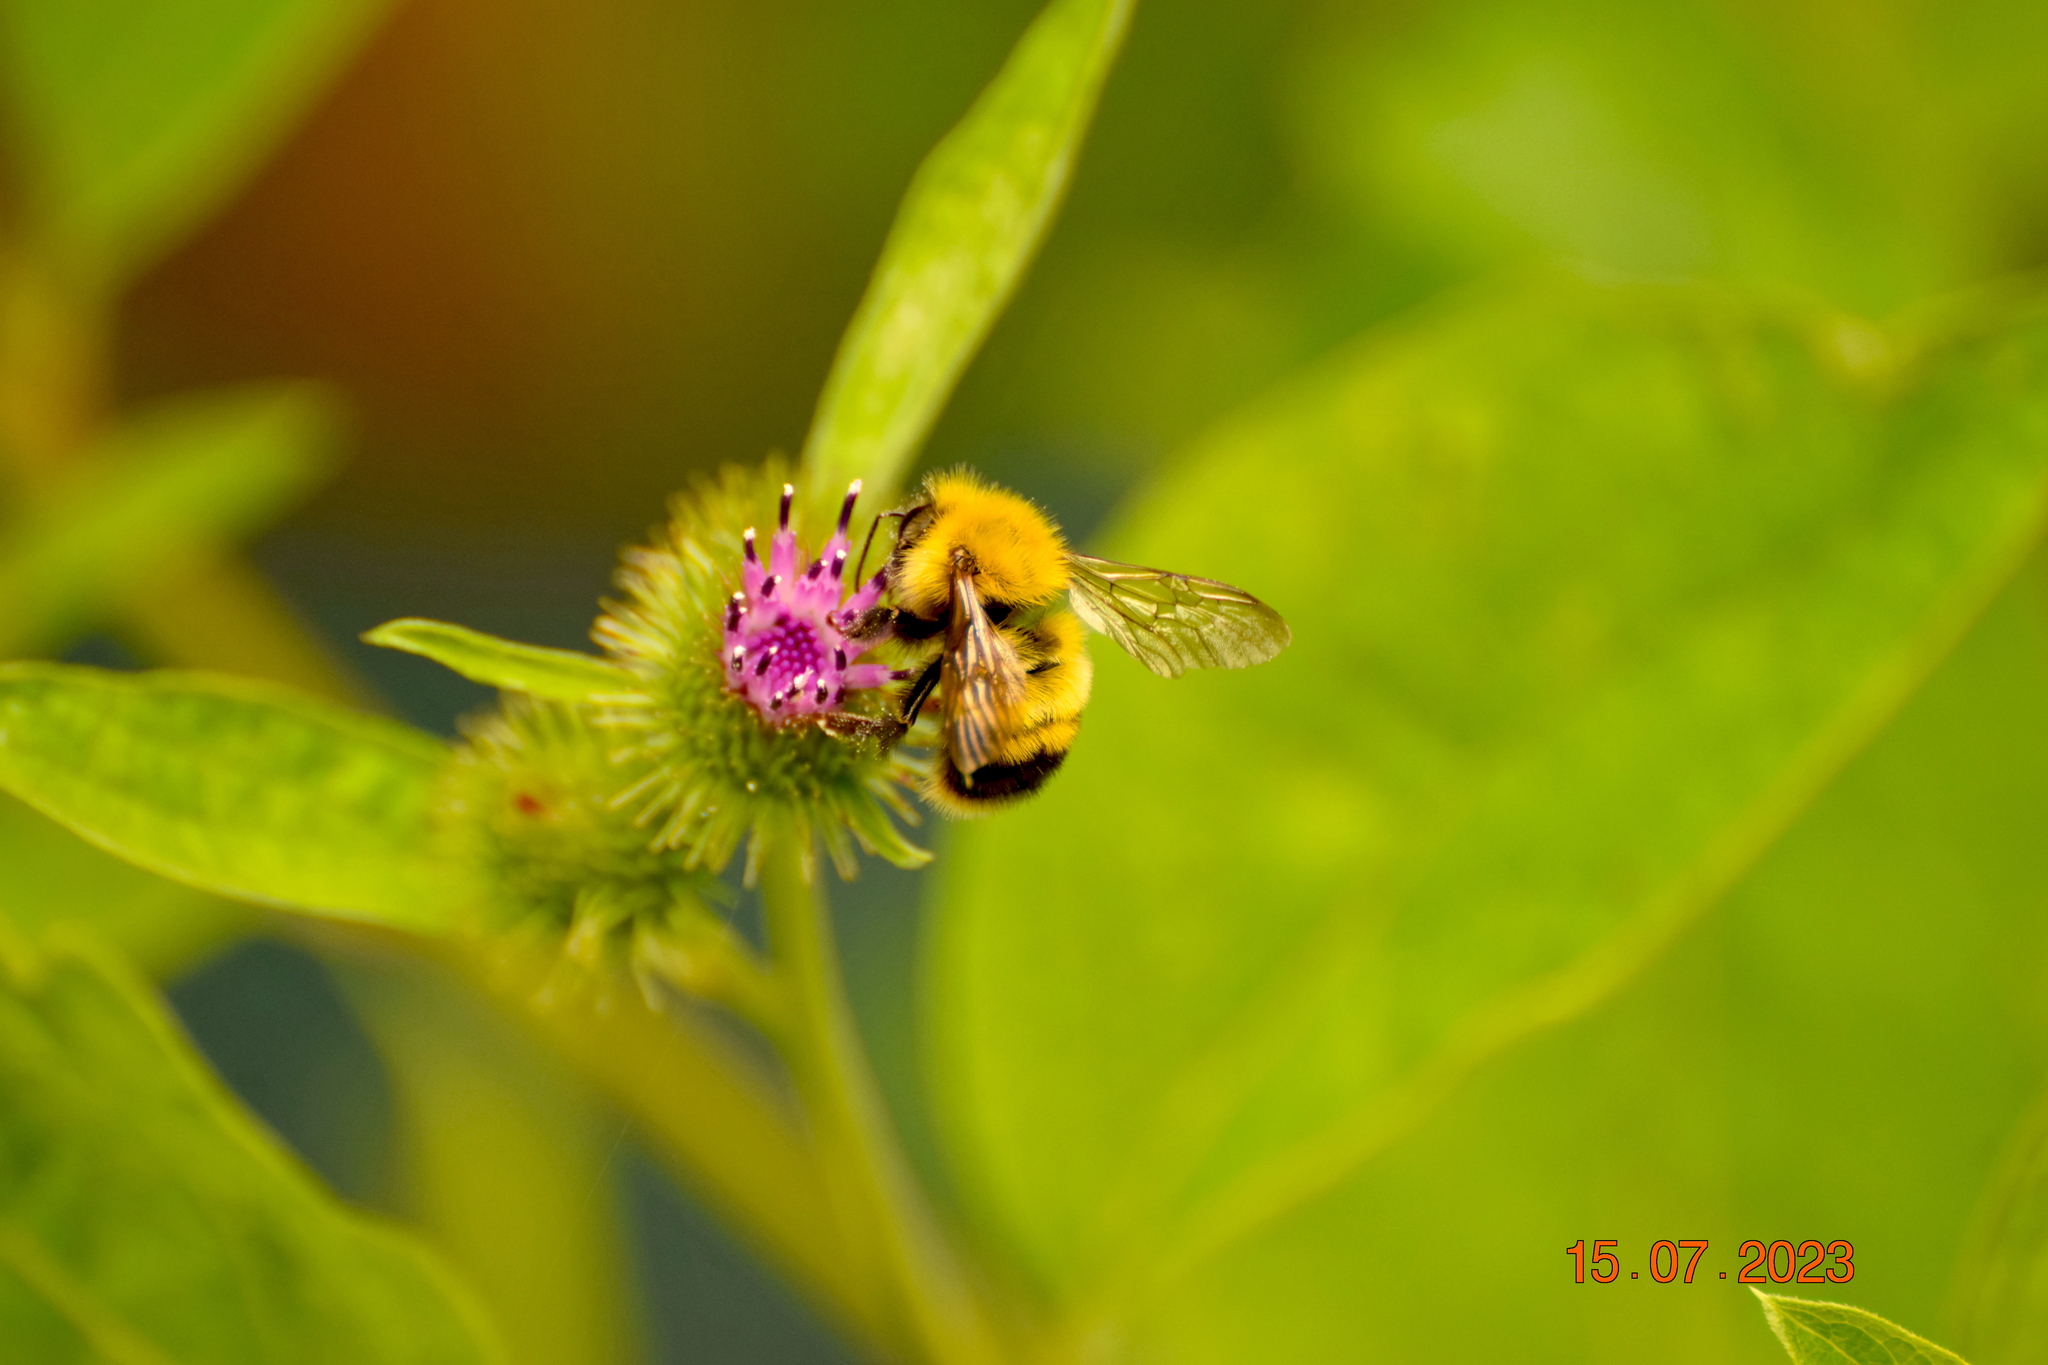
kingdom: Animalia
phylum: Arthropoda
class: Insecta
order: Hymenoptera
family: Apidae
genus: Bombus
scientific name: Bombus perplexus
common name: Confusing bumble bee
